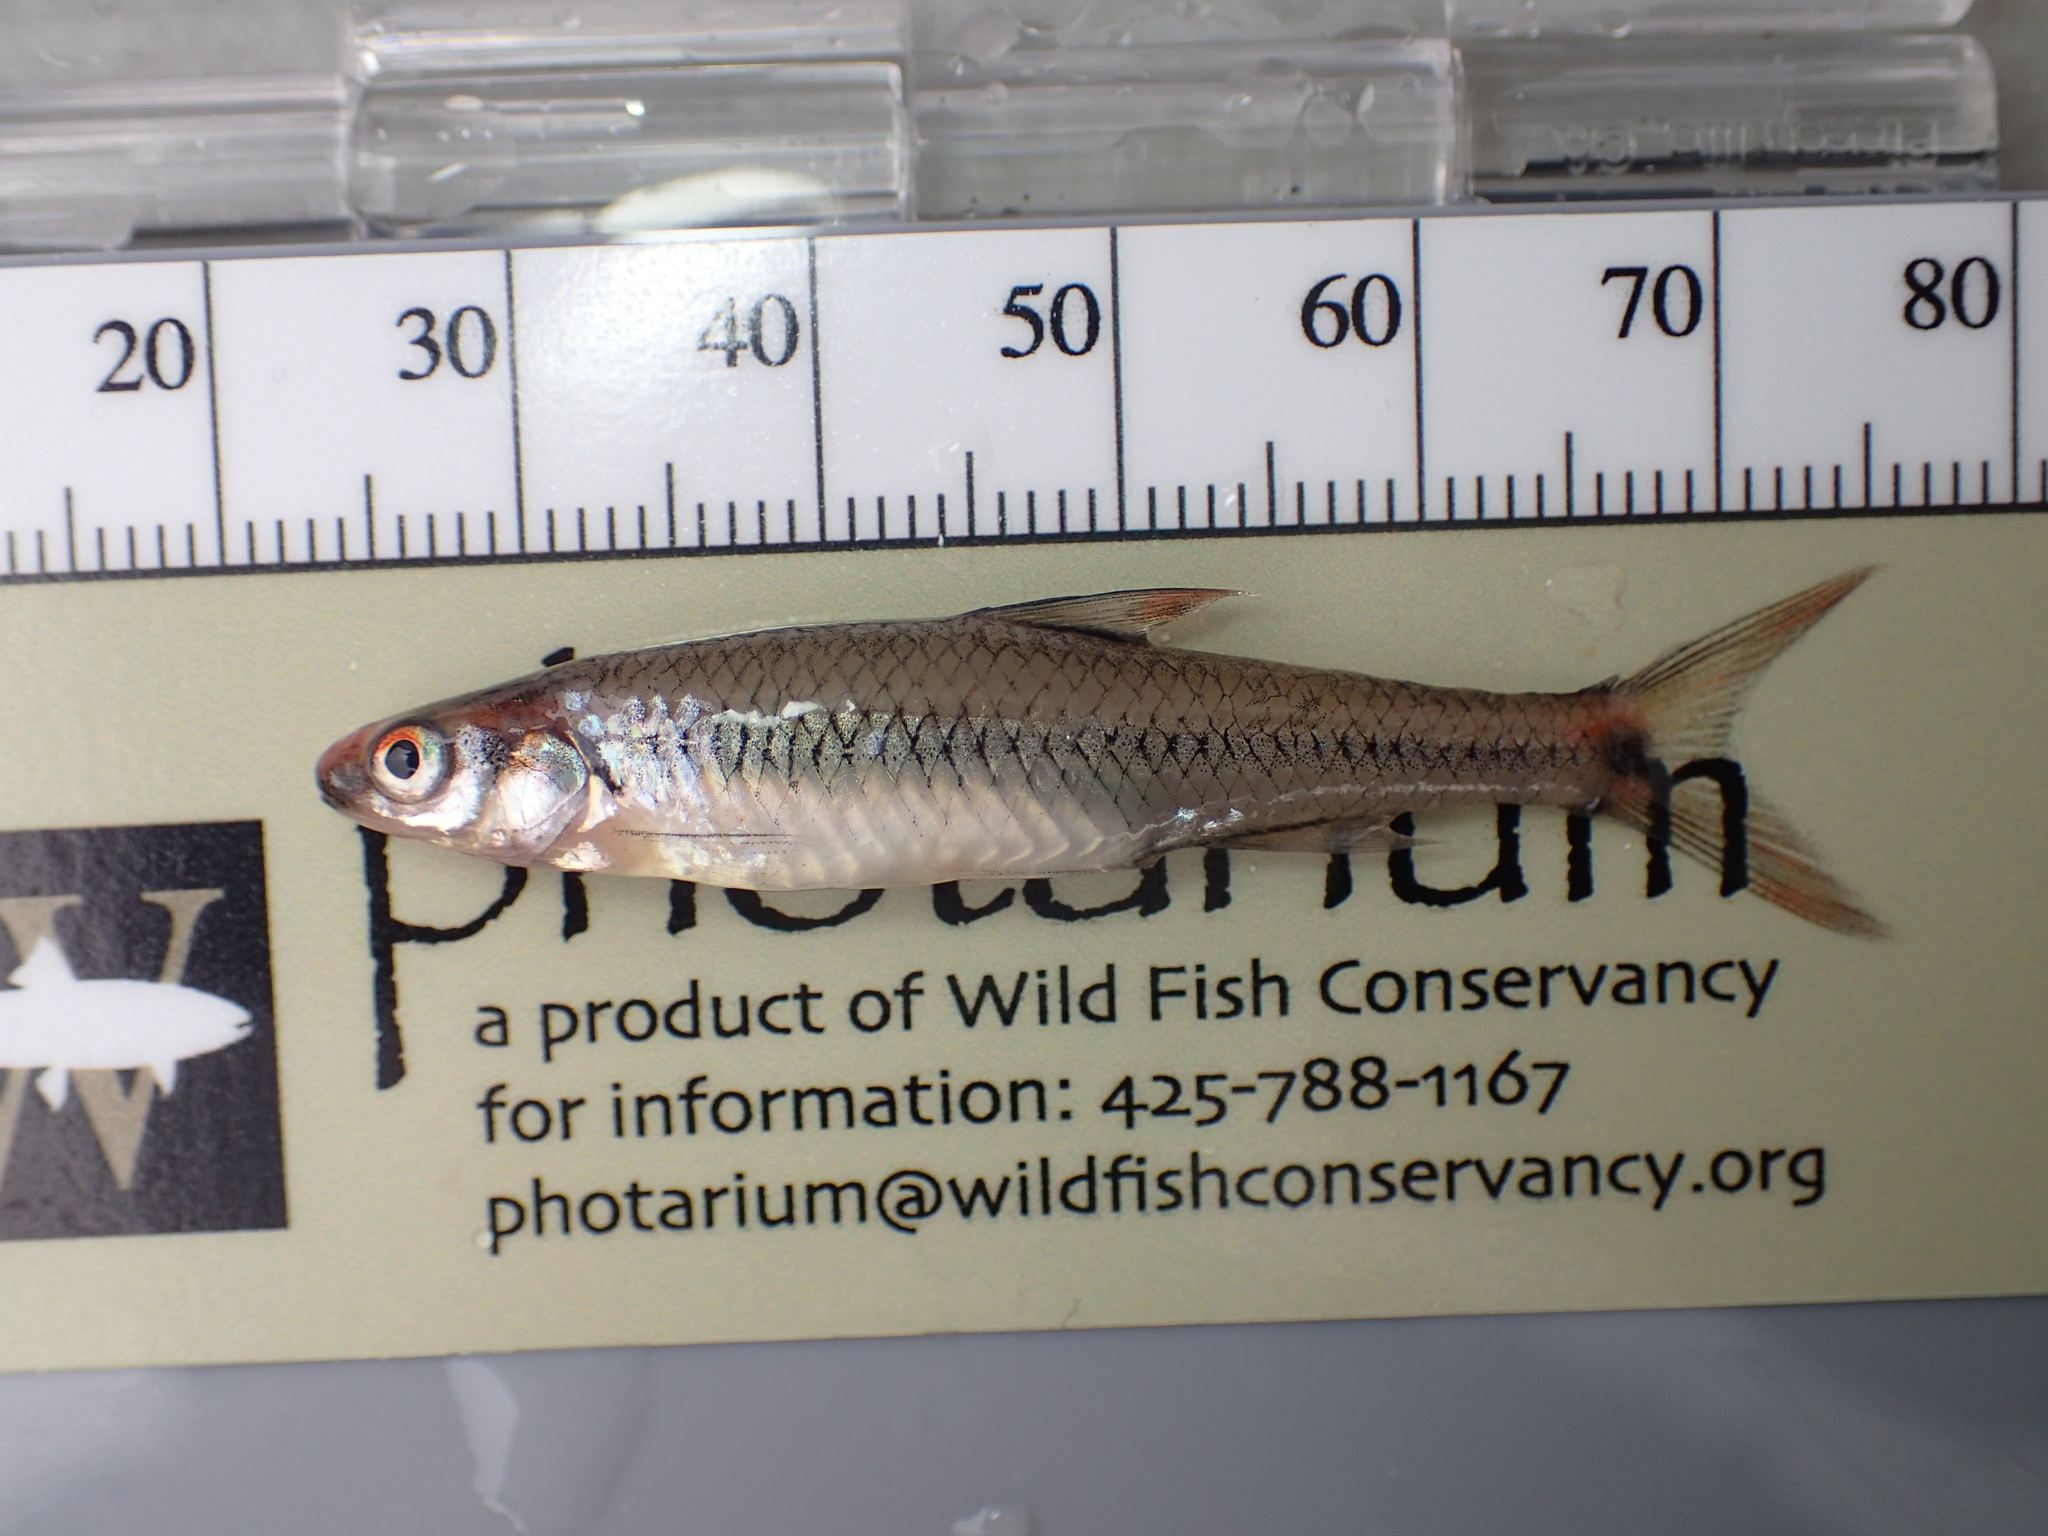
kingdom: Animalia
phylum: Chordata
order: Cypriniformes
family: Cyprinidae
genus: Notropis
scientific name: Notropis maculatus
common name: Taillight shiner
